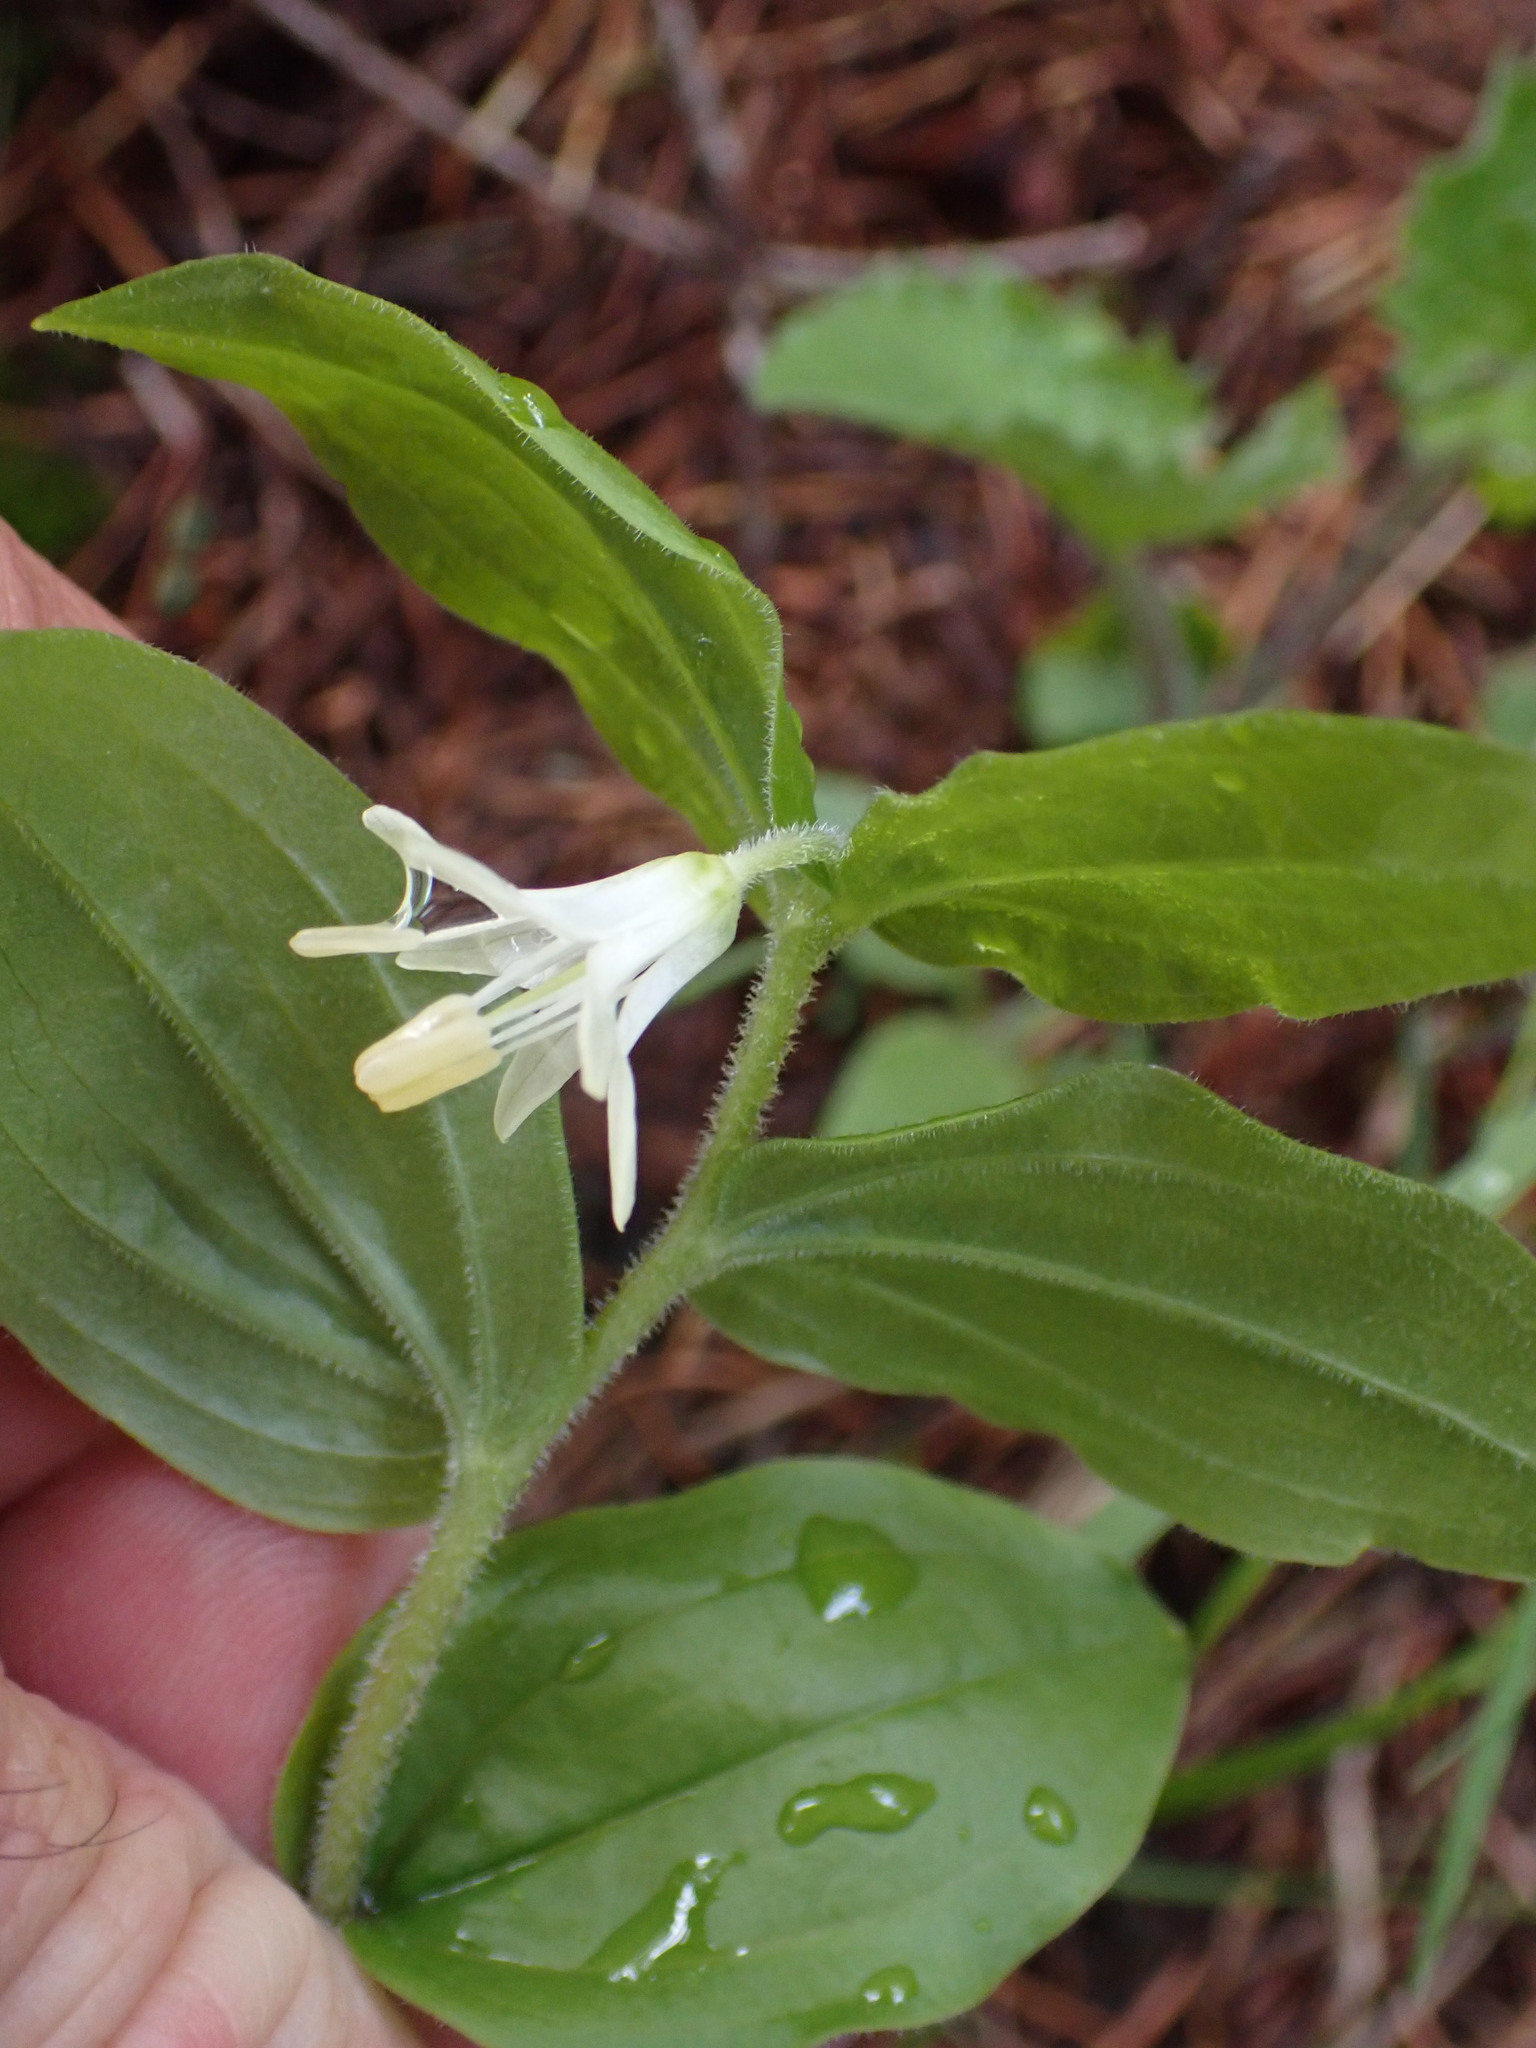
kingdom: Plantae
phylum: Tracheophyta
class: Liliopsida
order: Liliales
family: Liliaceae
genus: Prosartes
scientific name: Prosartes trachycarpa
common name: Rough-fruit fairy-bells
